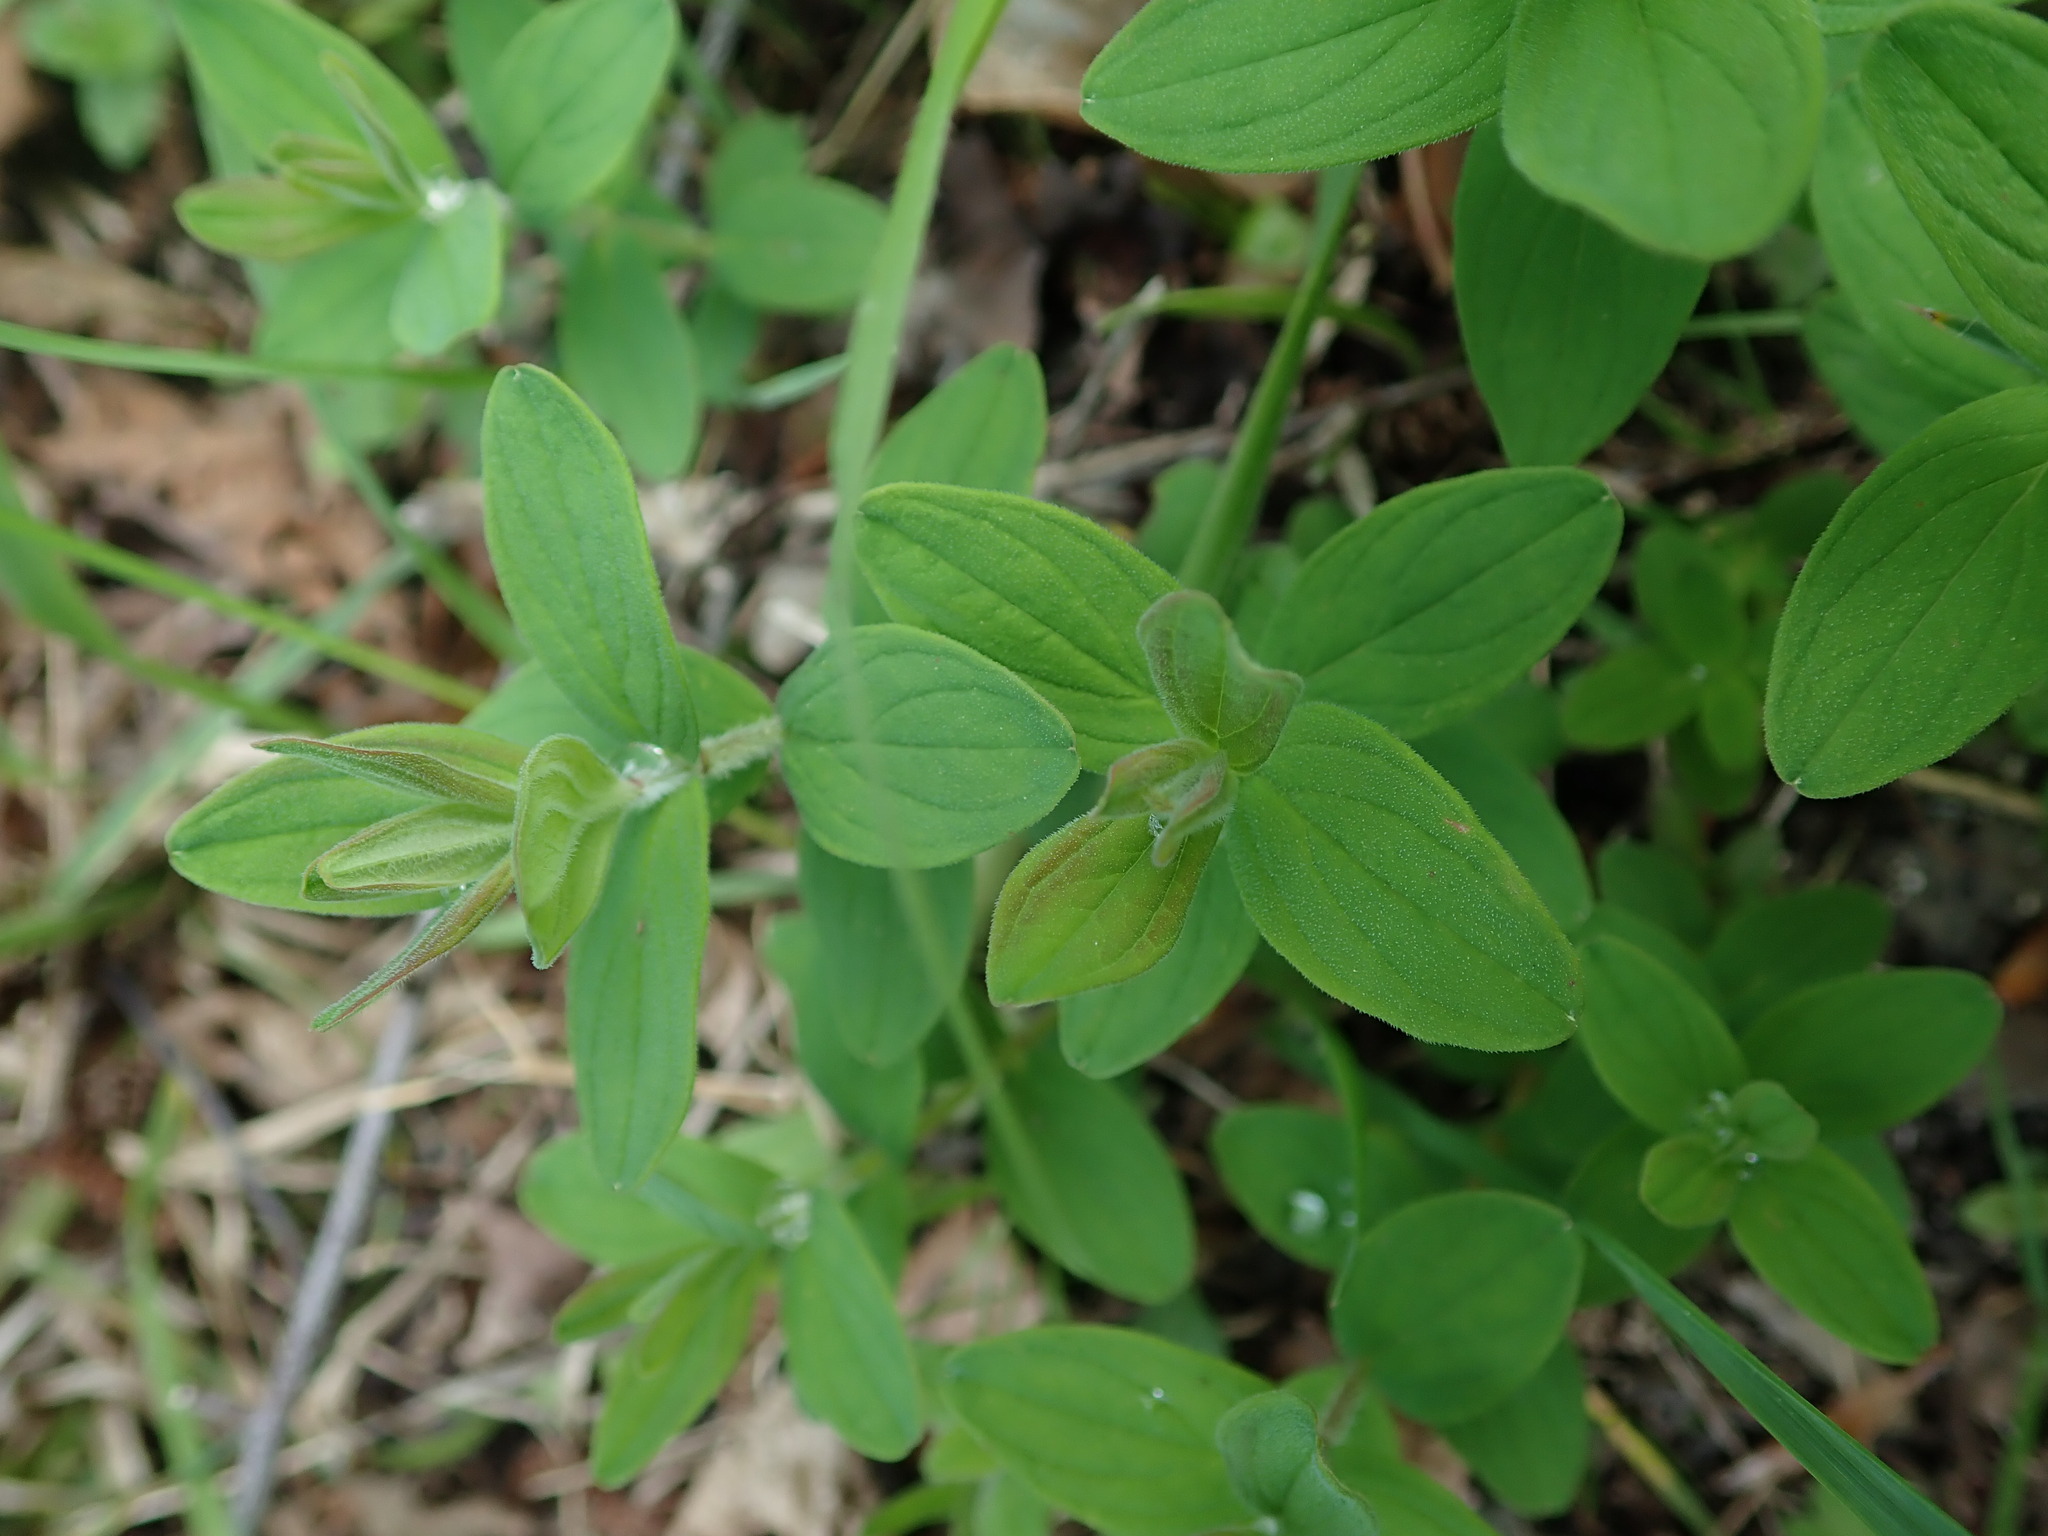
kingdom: Plantae
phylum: Tracheophyta
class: Magnoliopsida
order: Malpighiales
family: Hypericaceae
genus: Hypericum
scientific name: Hypericum hirsutum
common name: Hairy st. john's-wort
